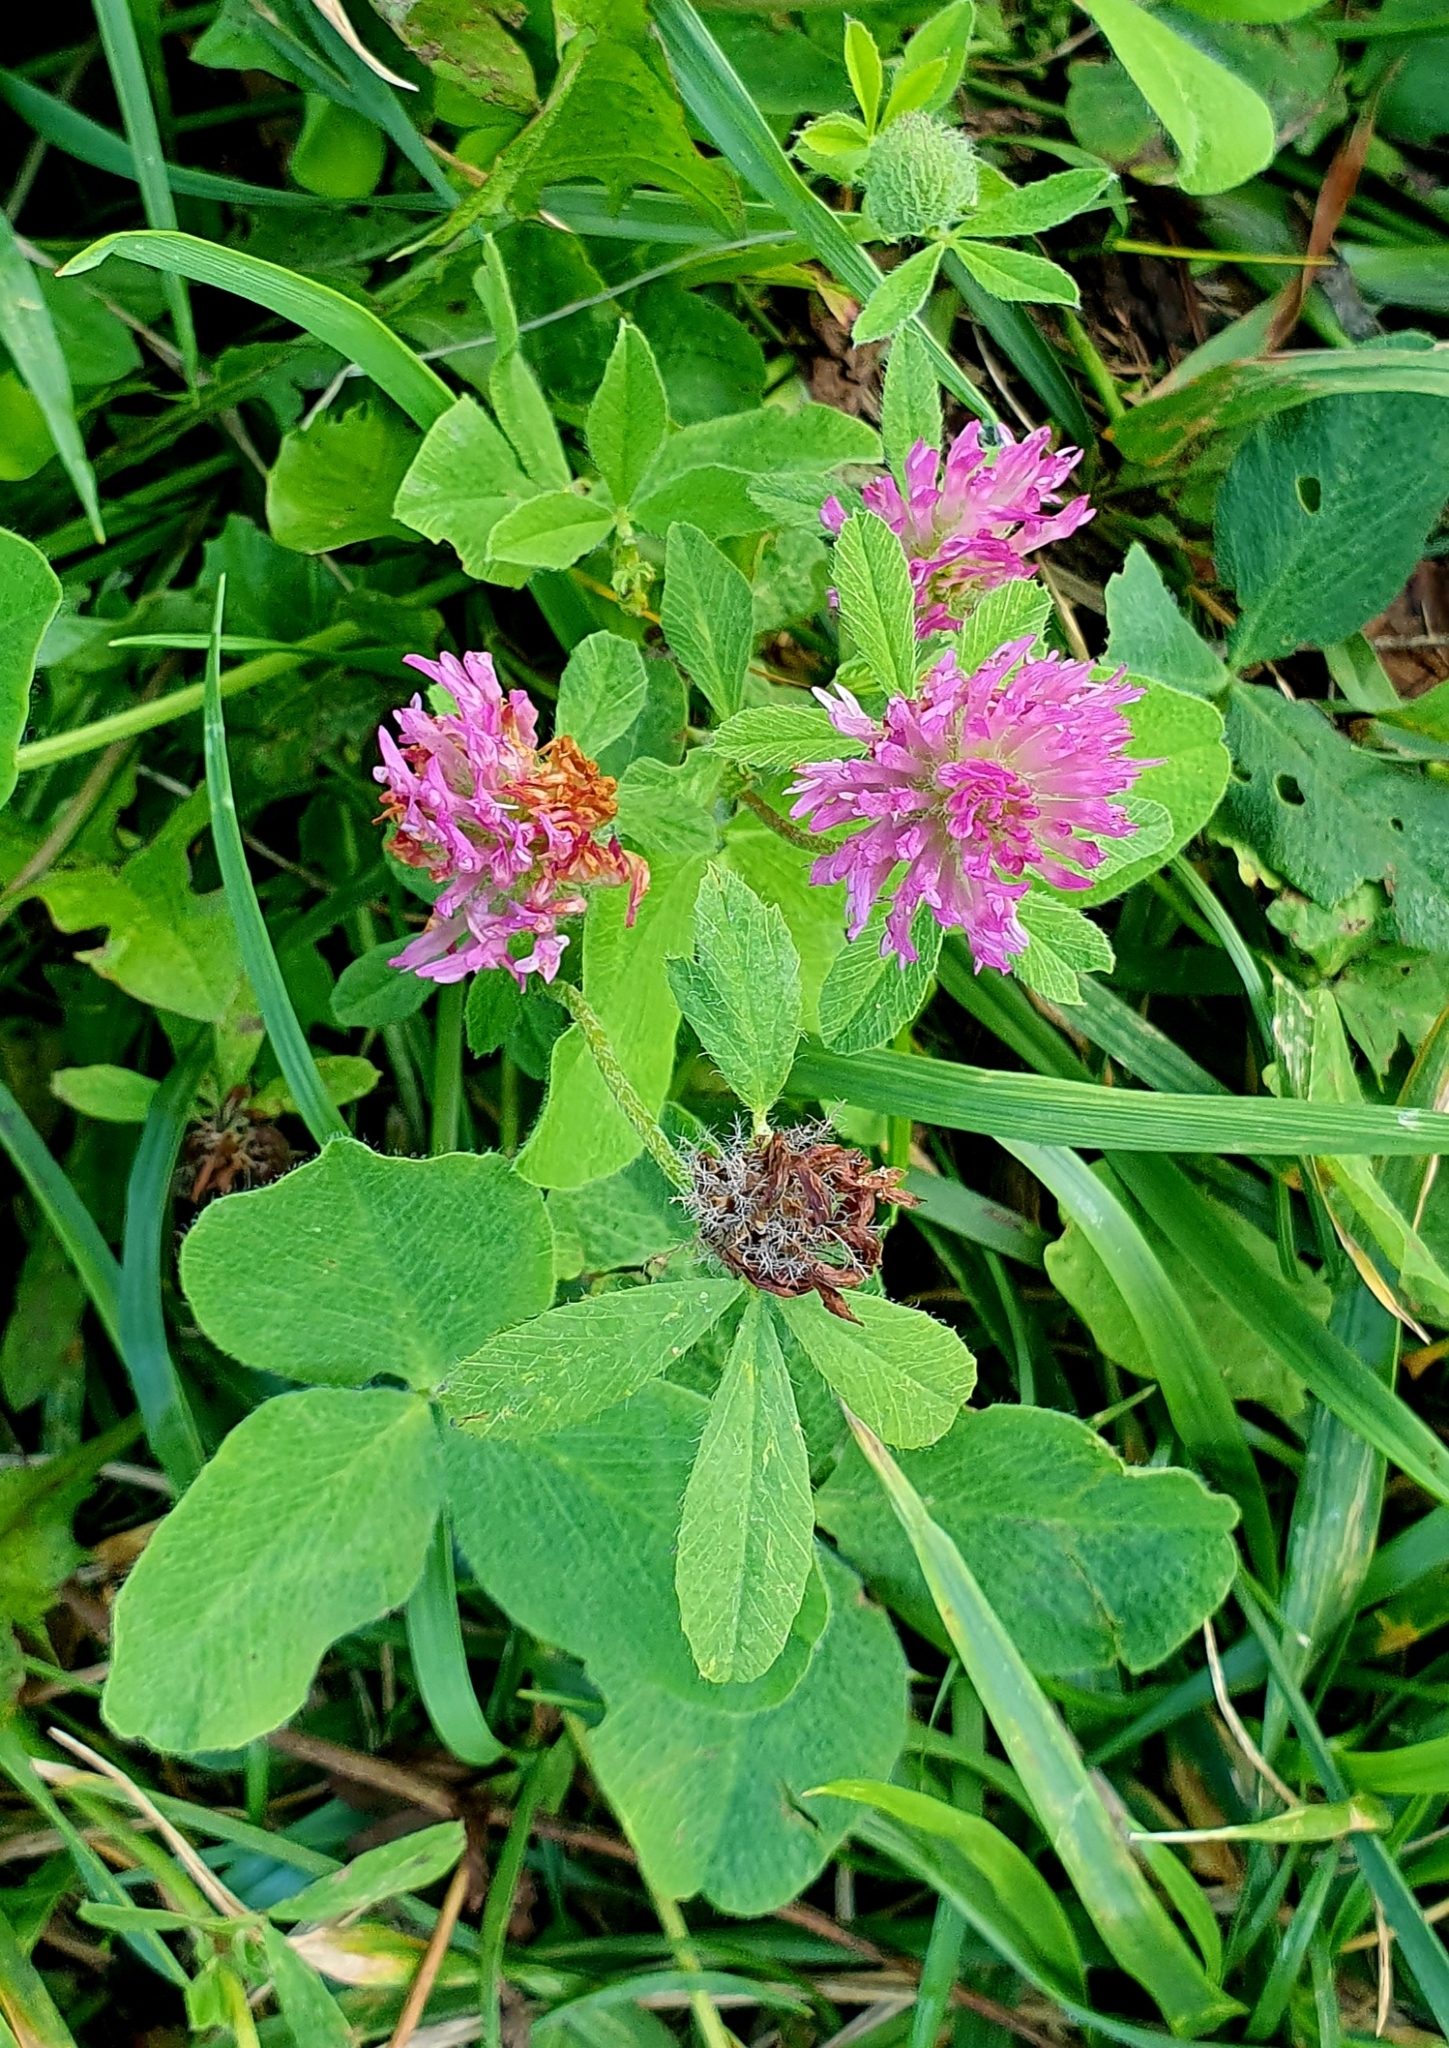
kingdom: Plantae
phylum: Tracheophyta
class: Magnoliopsida
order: Fabales
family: Fabaceae
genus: Trifolium
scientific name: Trifolium pratense
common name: Red clover
